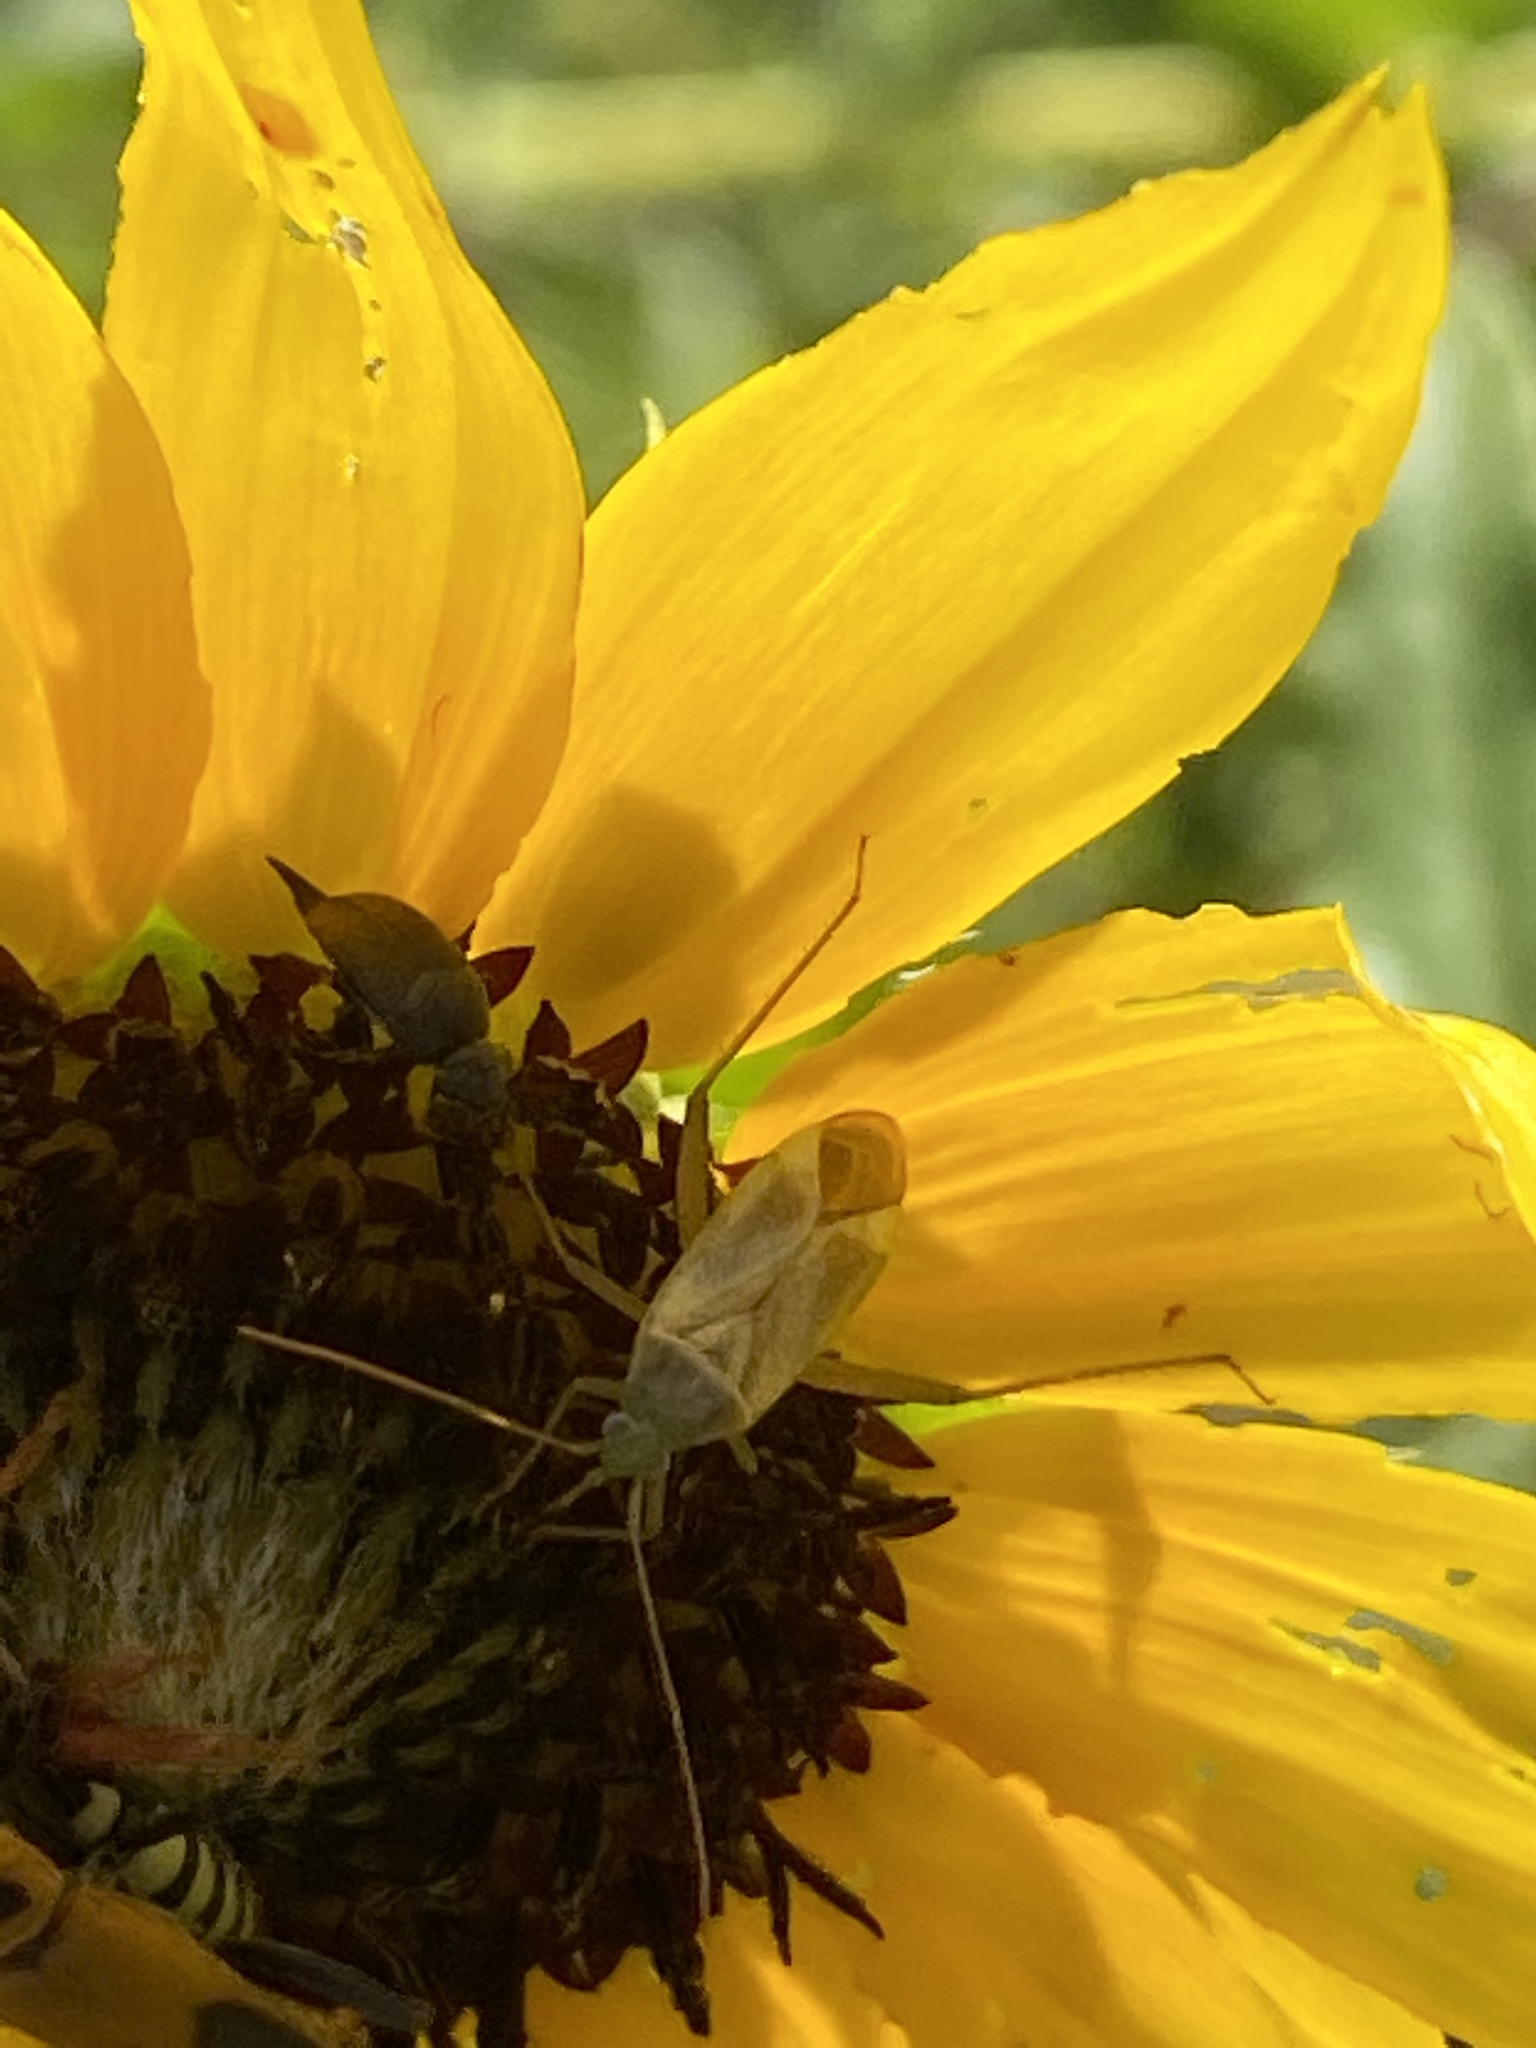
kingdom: Animalia
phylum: Arthropoda
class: Insecta
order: Hemiptera
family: Miridae
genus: Adelphocoris
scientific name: Adelphocoris lineolatus
